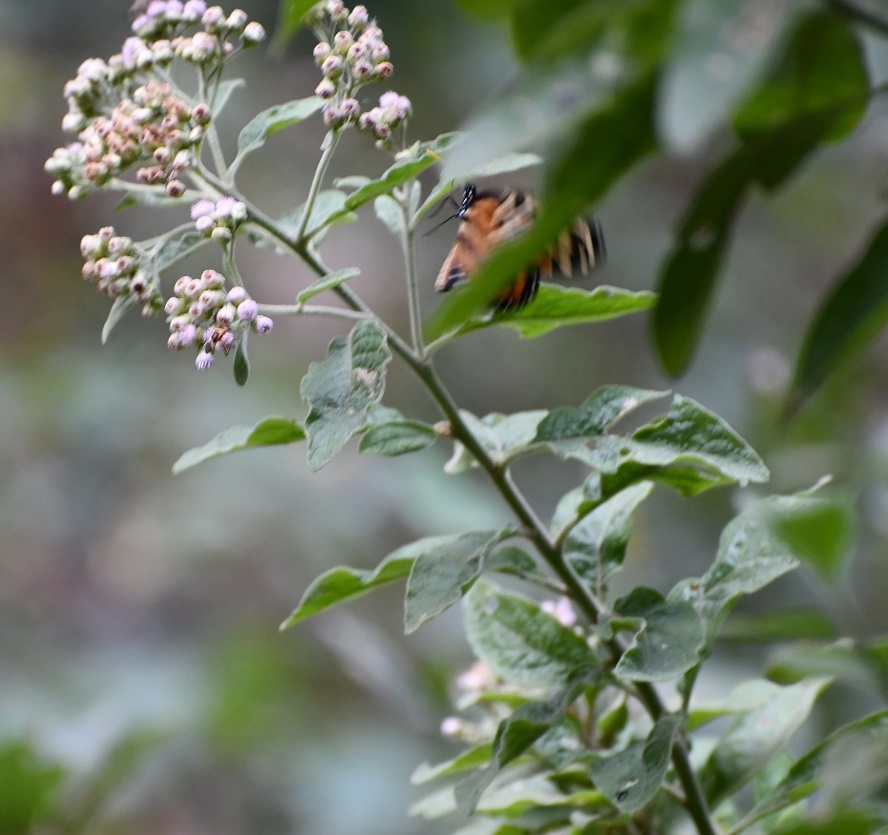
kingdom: Plantae
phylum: Tracheophyta
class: Magnoliopsida
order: Asterales
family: Asteraceae
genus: Pluchea
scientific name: Pluchea carolinensis
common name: Marsh fleabane
